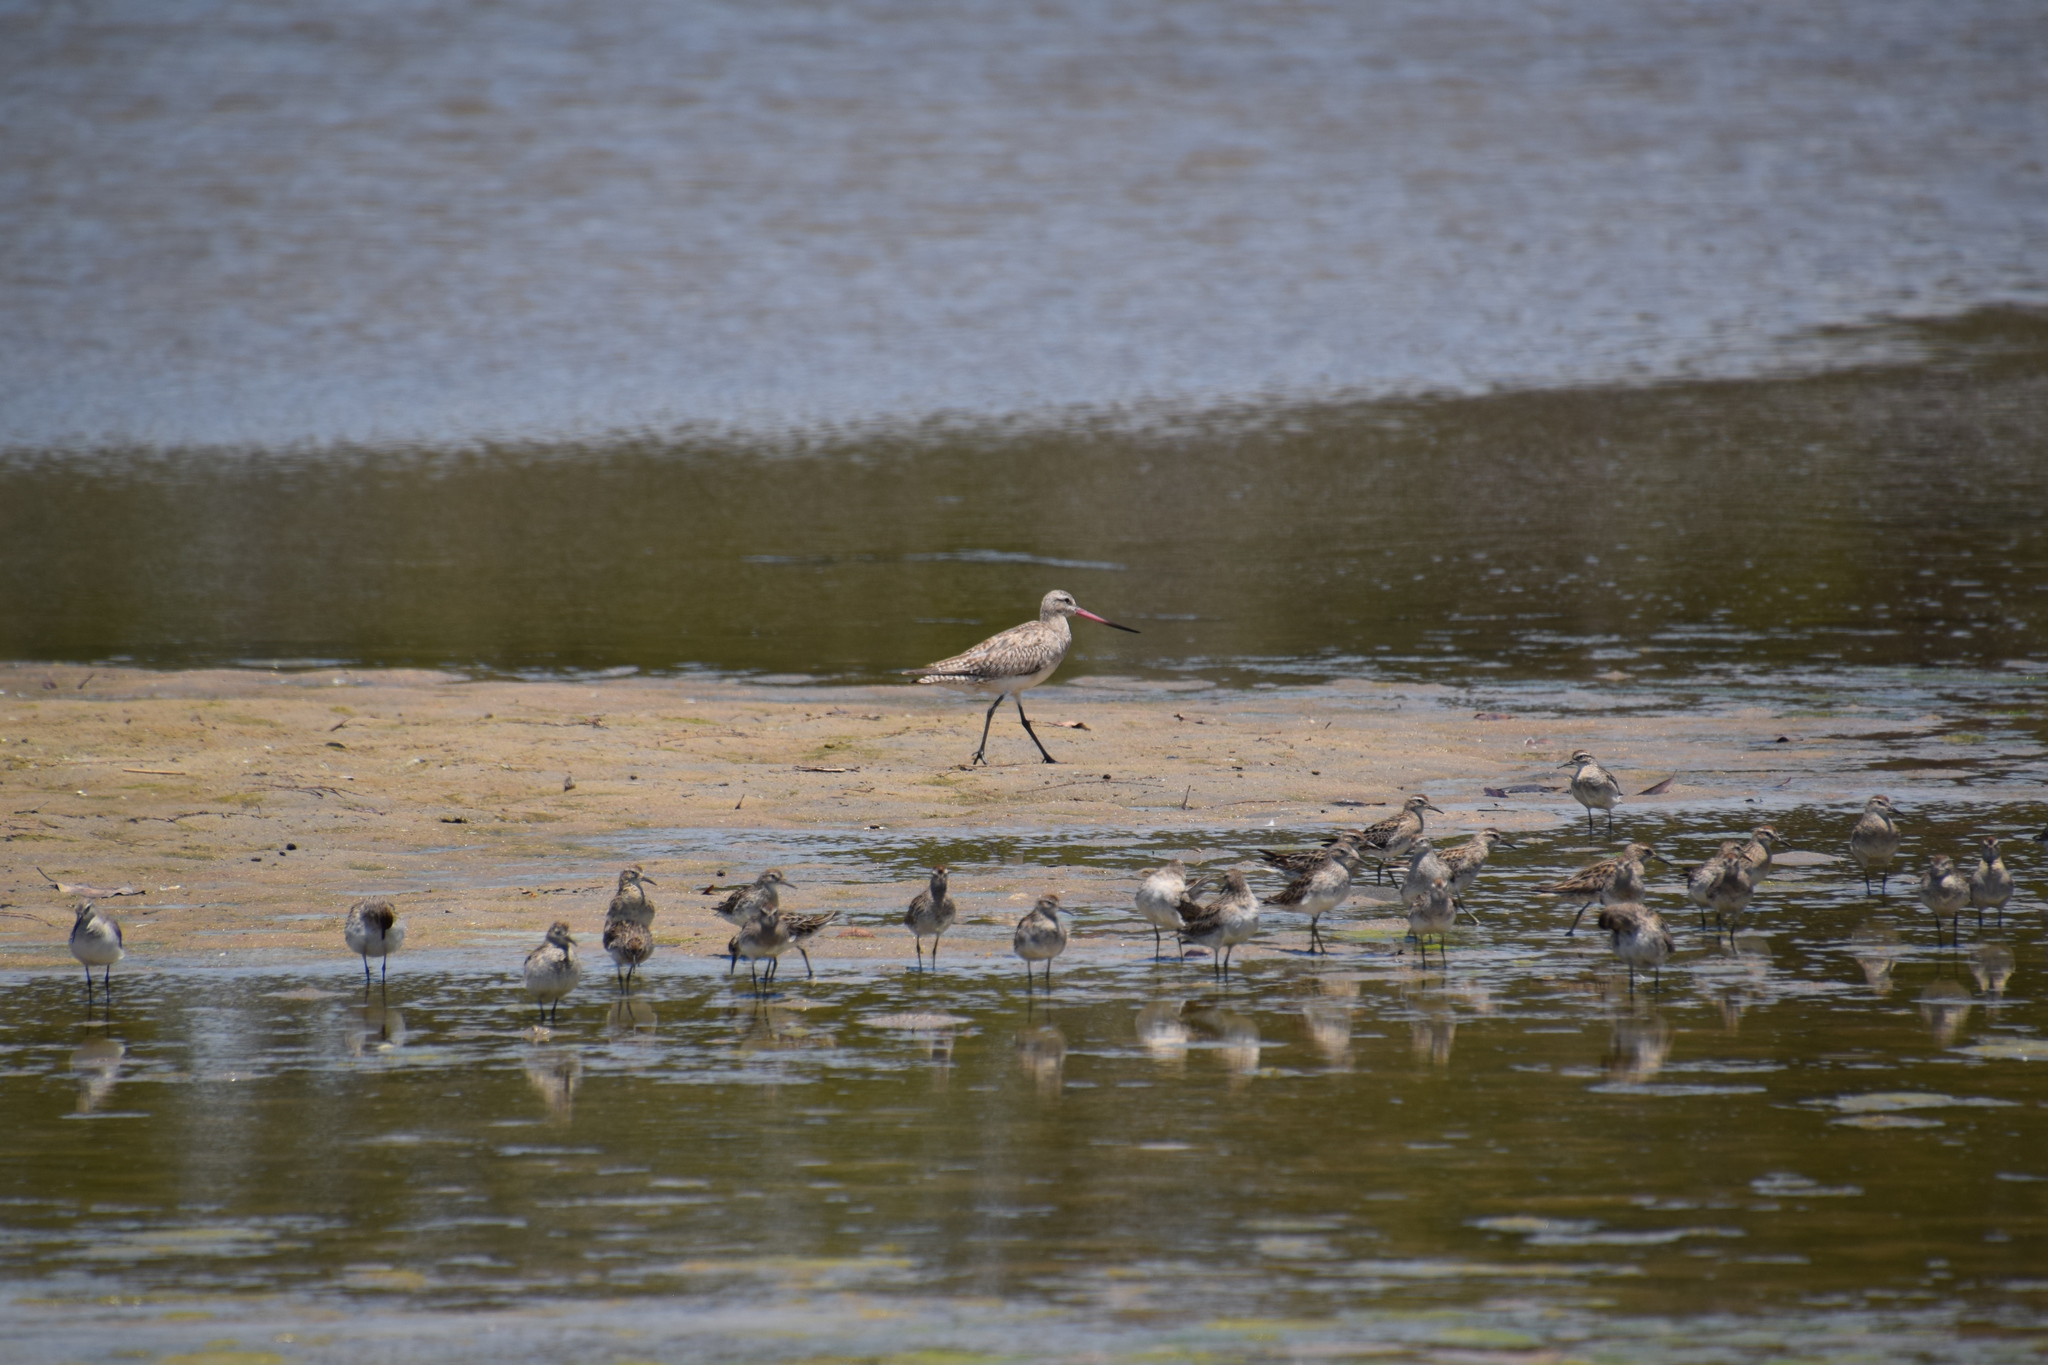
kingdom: Animalia
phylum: Chordata
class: Aves
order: Charadriiformes
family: Scolopacidae
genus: Limosa
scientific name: Limosa lapponica
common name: Bar-tailed godwit
